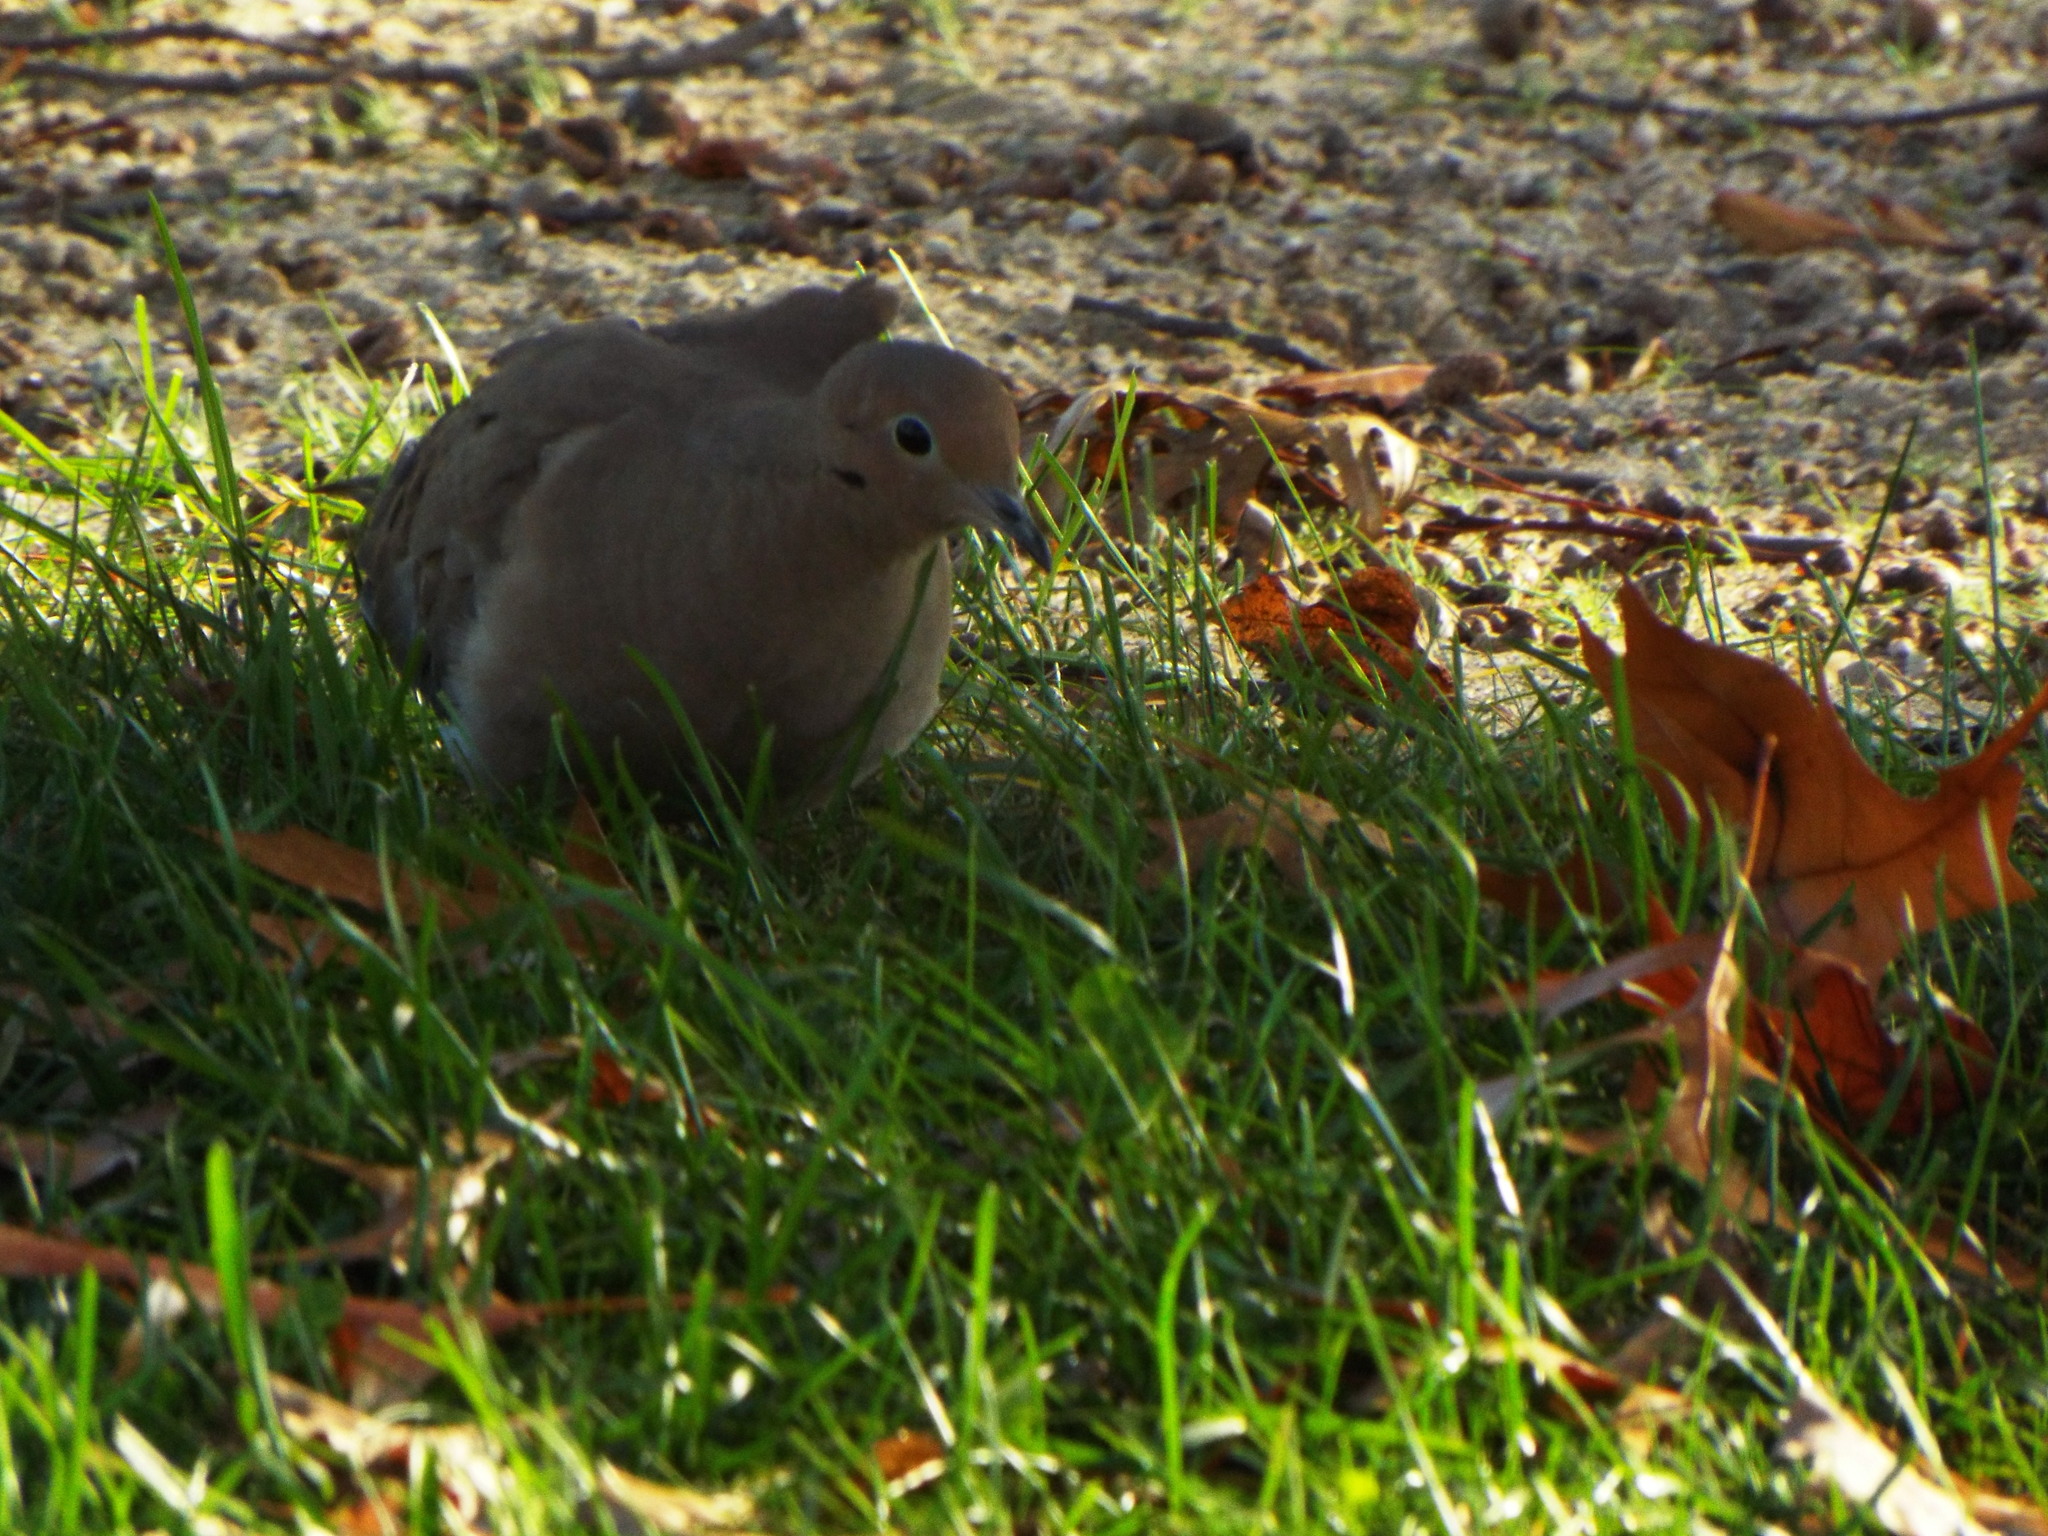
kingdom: Animalia
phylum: Chordata
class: Aves
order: Columbiformes
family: Columbidae
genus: Zenaida
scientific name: Zenaida macroura
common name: Mourning dove
